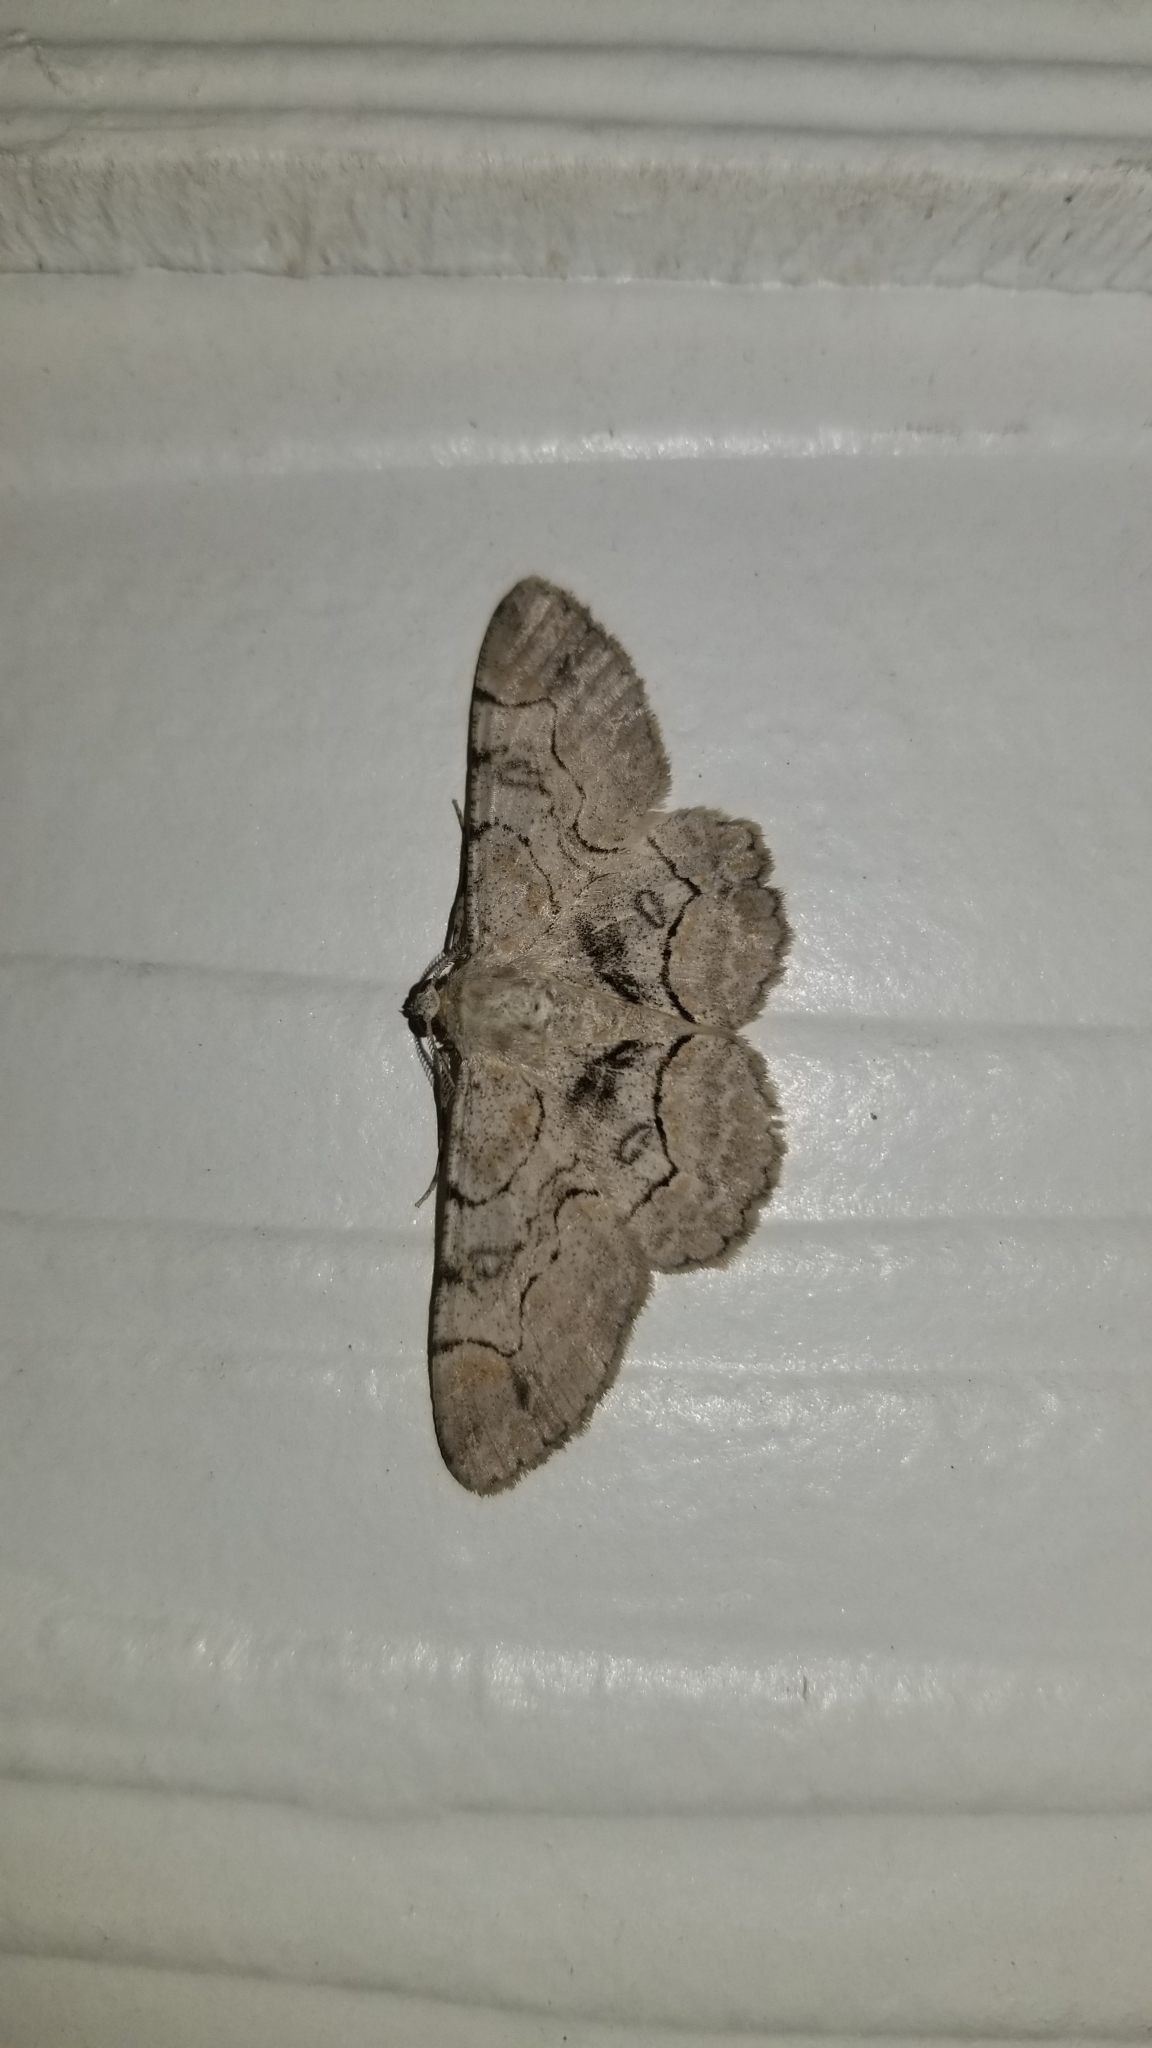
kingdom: Animalia
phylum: Arthropoda
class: Insecta
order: Lepidoptera
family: Geometridae
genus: Iridopsis
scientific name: Iridopsis larvaria
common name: Bent-line gray
